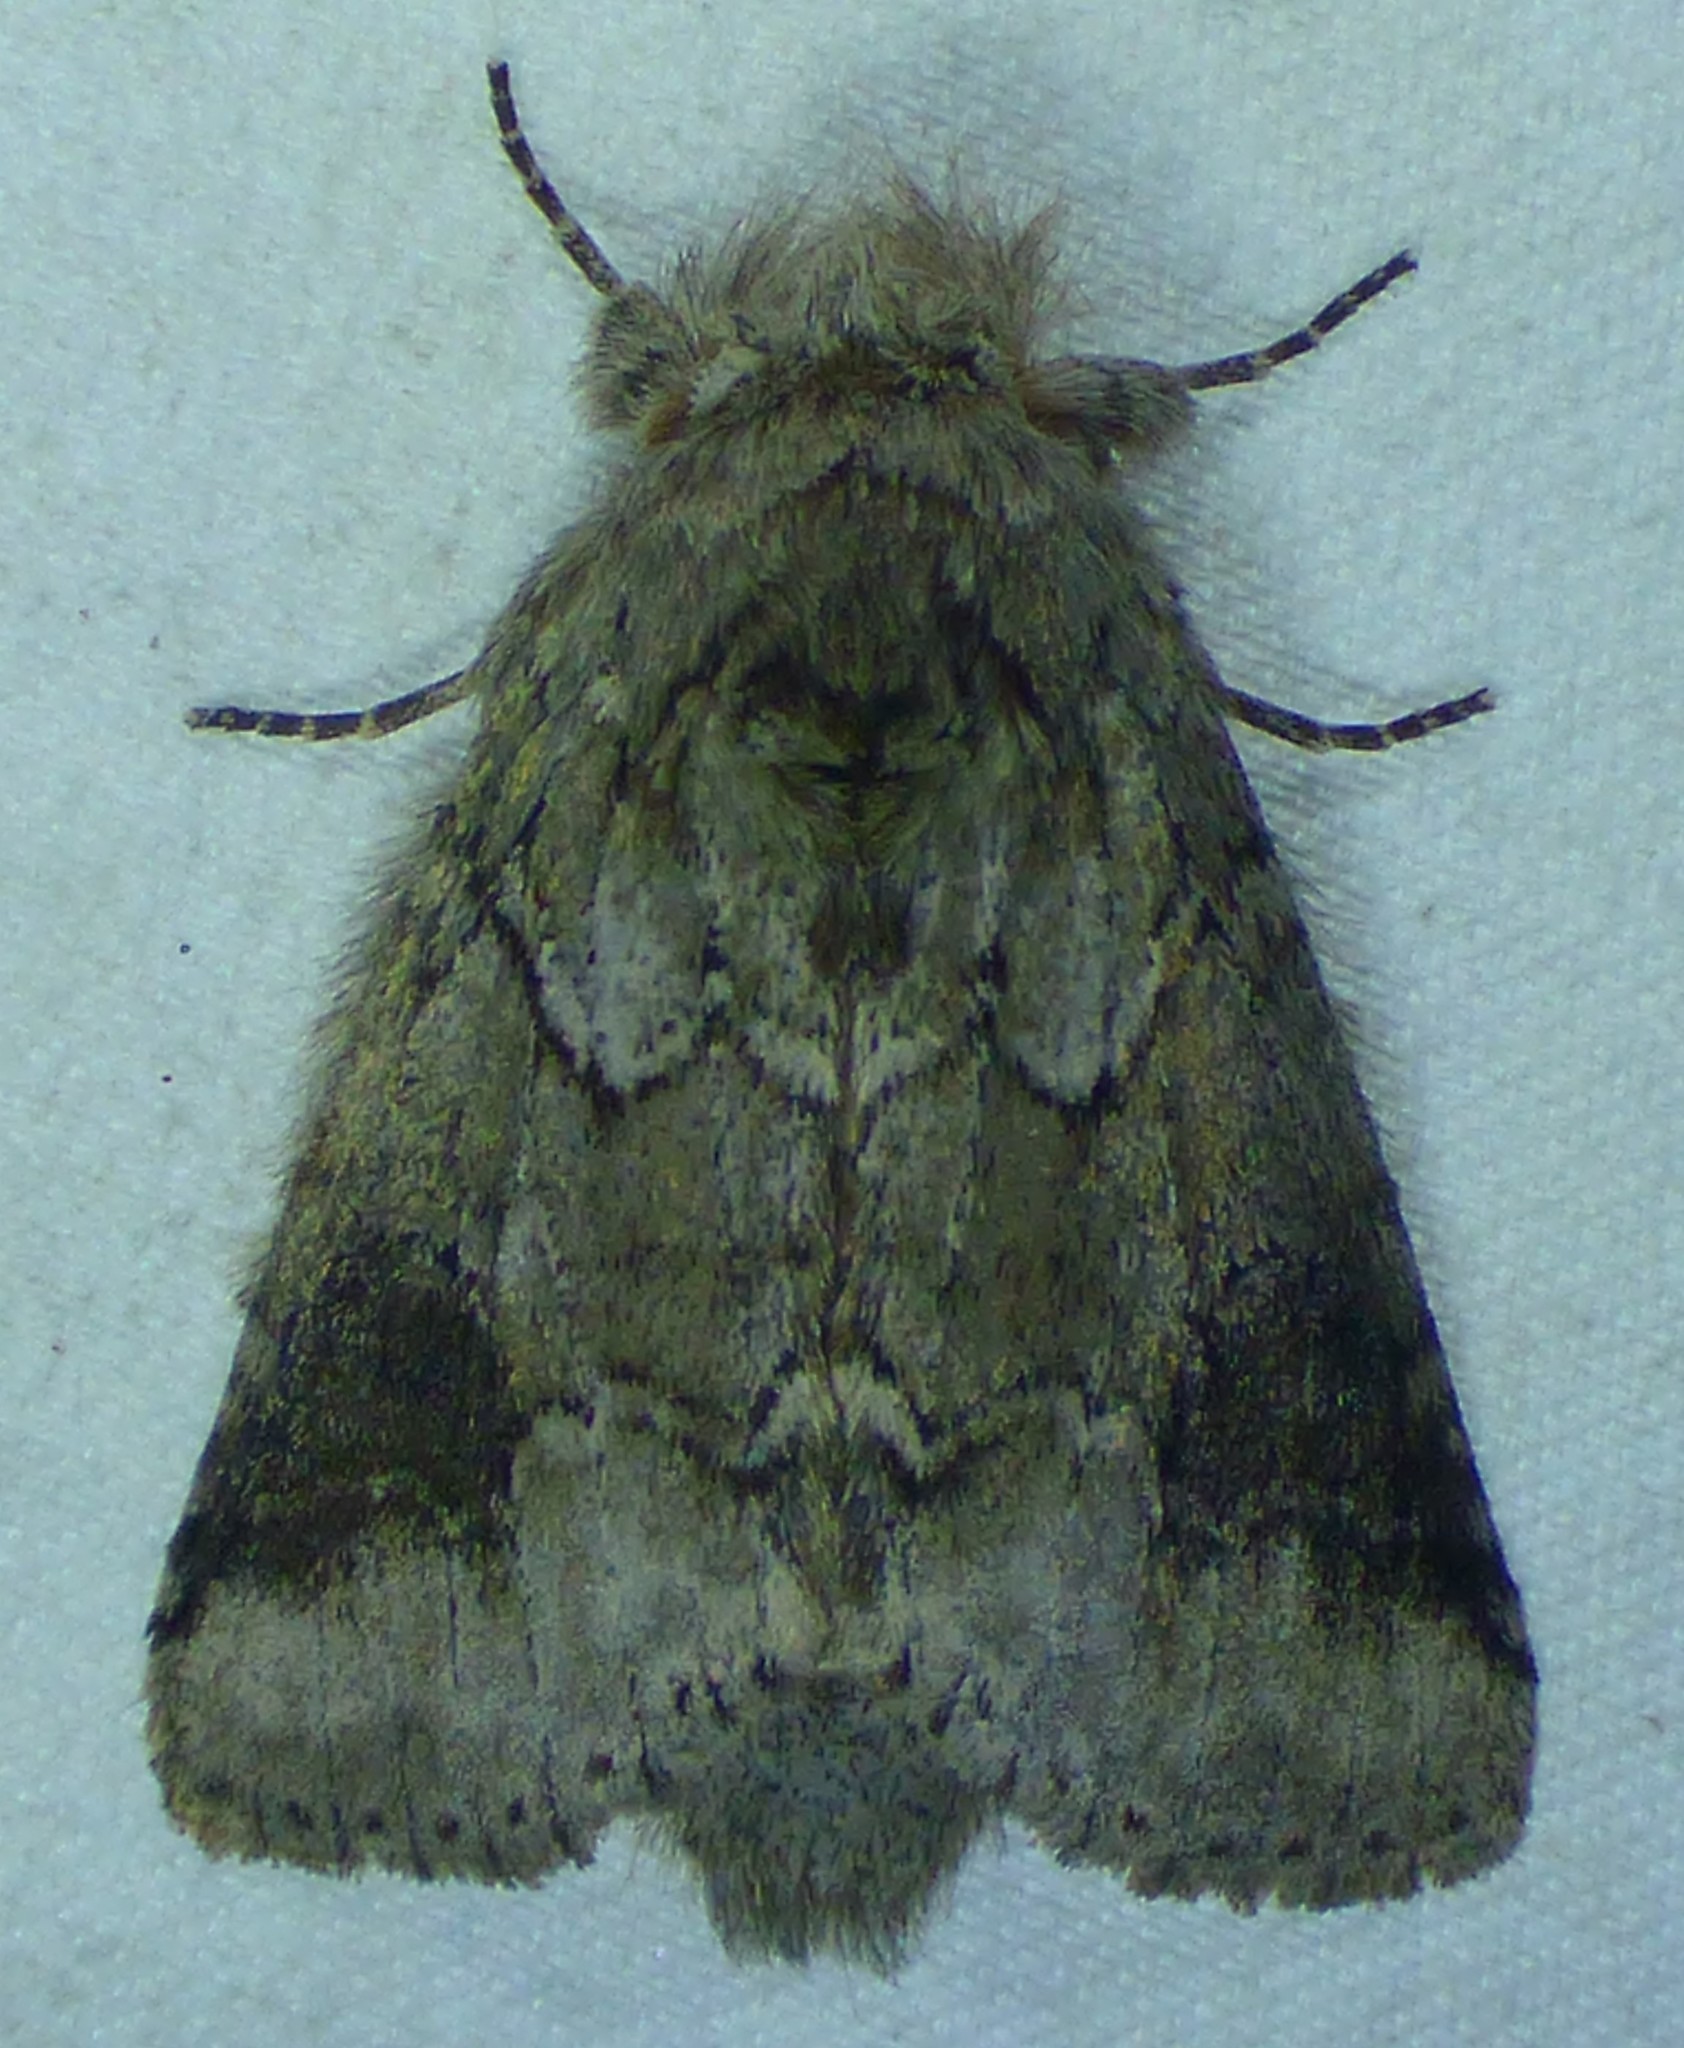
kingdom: Animalia
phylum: Arthropoda
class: Insecta
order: Lepidoptera
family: Notodontidae
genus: Lochmaeus
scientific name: Lochmaeus bilineata
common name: Double-lined prominent
